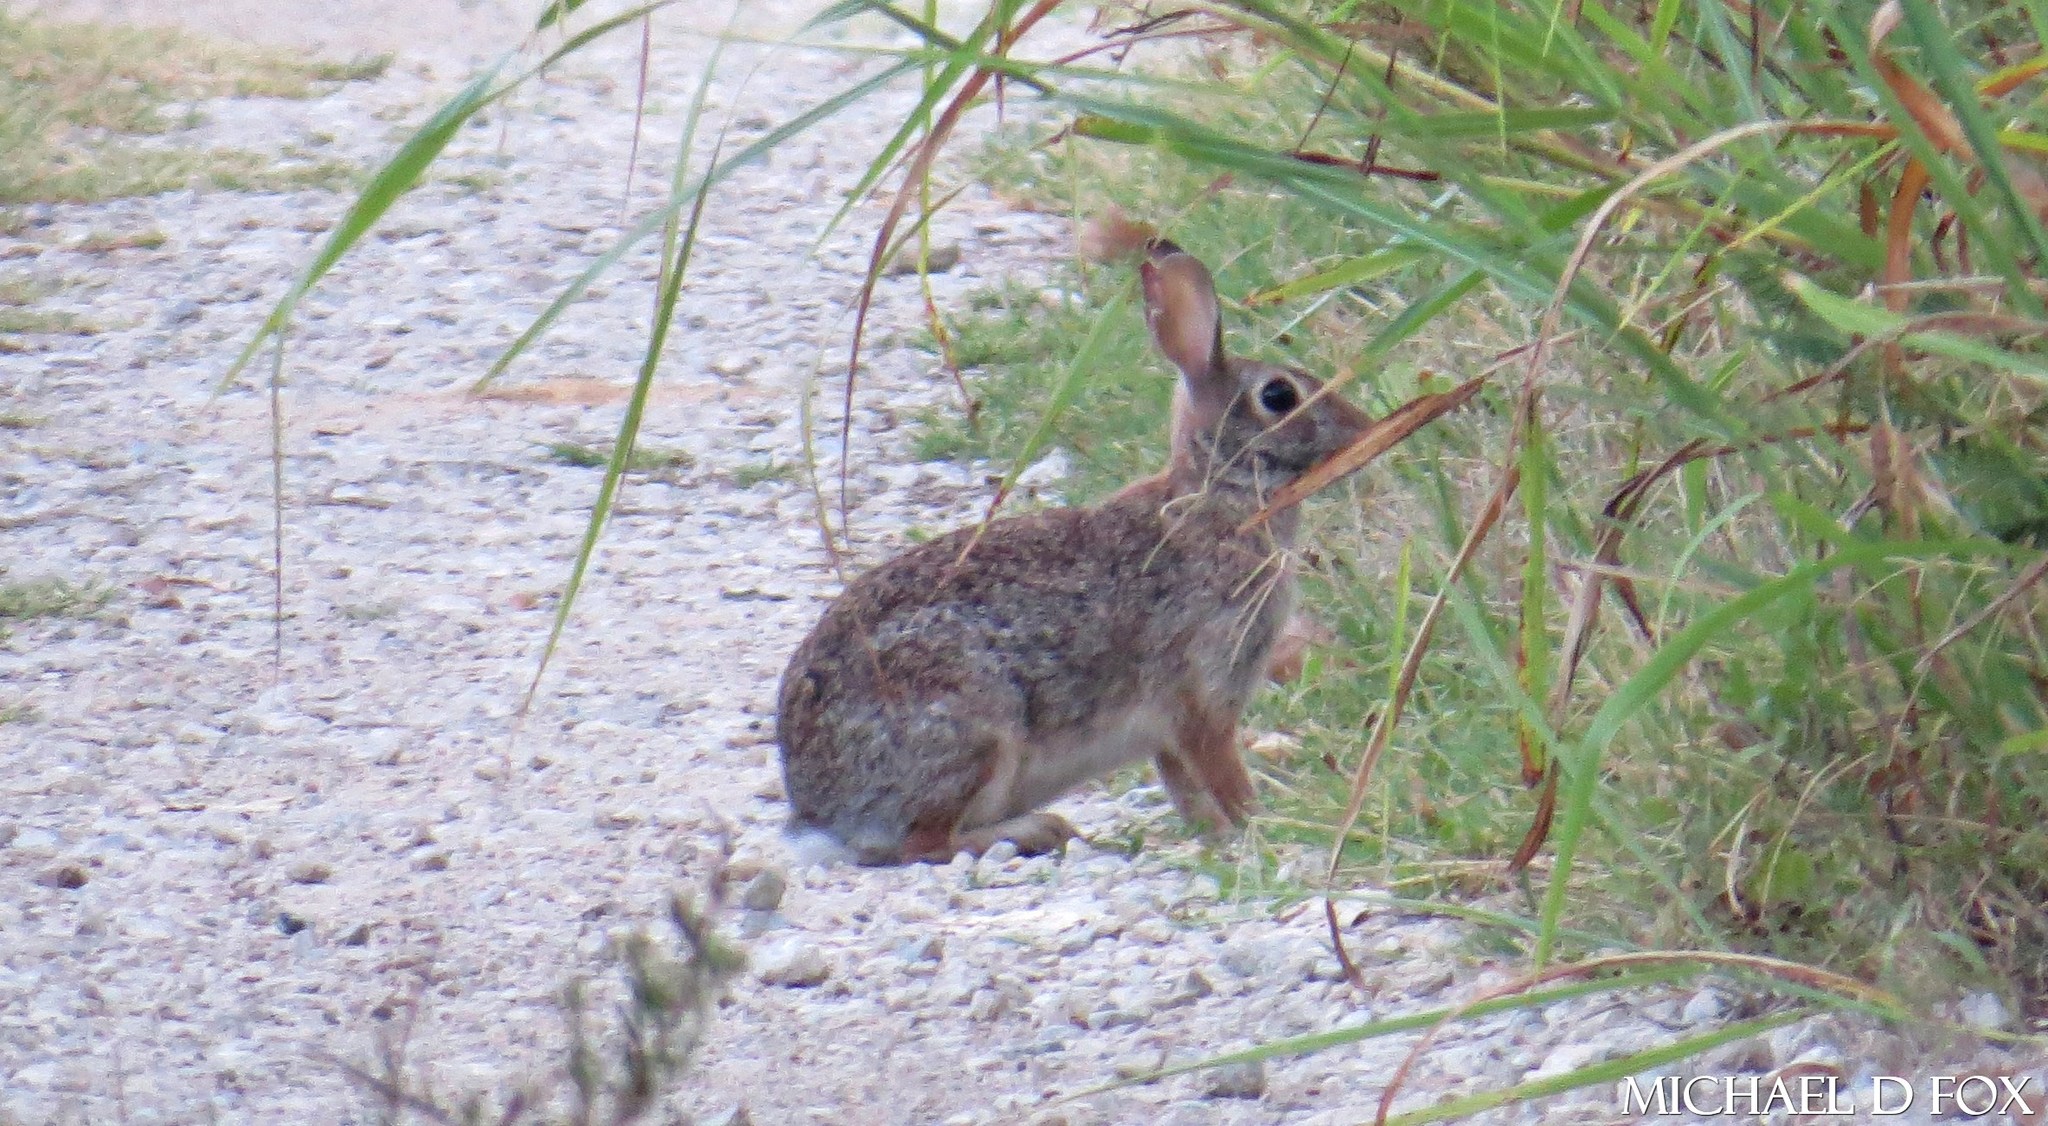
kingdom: Animalia
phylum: Chordata
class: Mammalia
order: Lagomorpha
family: Leporidae
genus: Sylvilagus
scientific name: Sylvilagus floridanus
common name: Eastern cottontail
